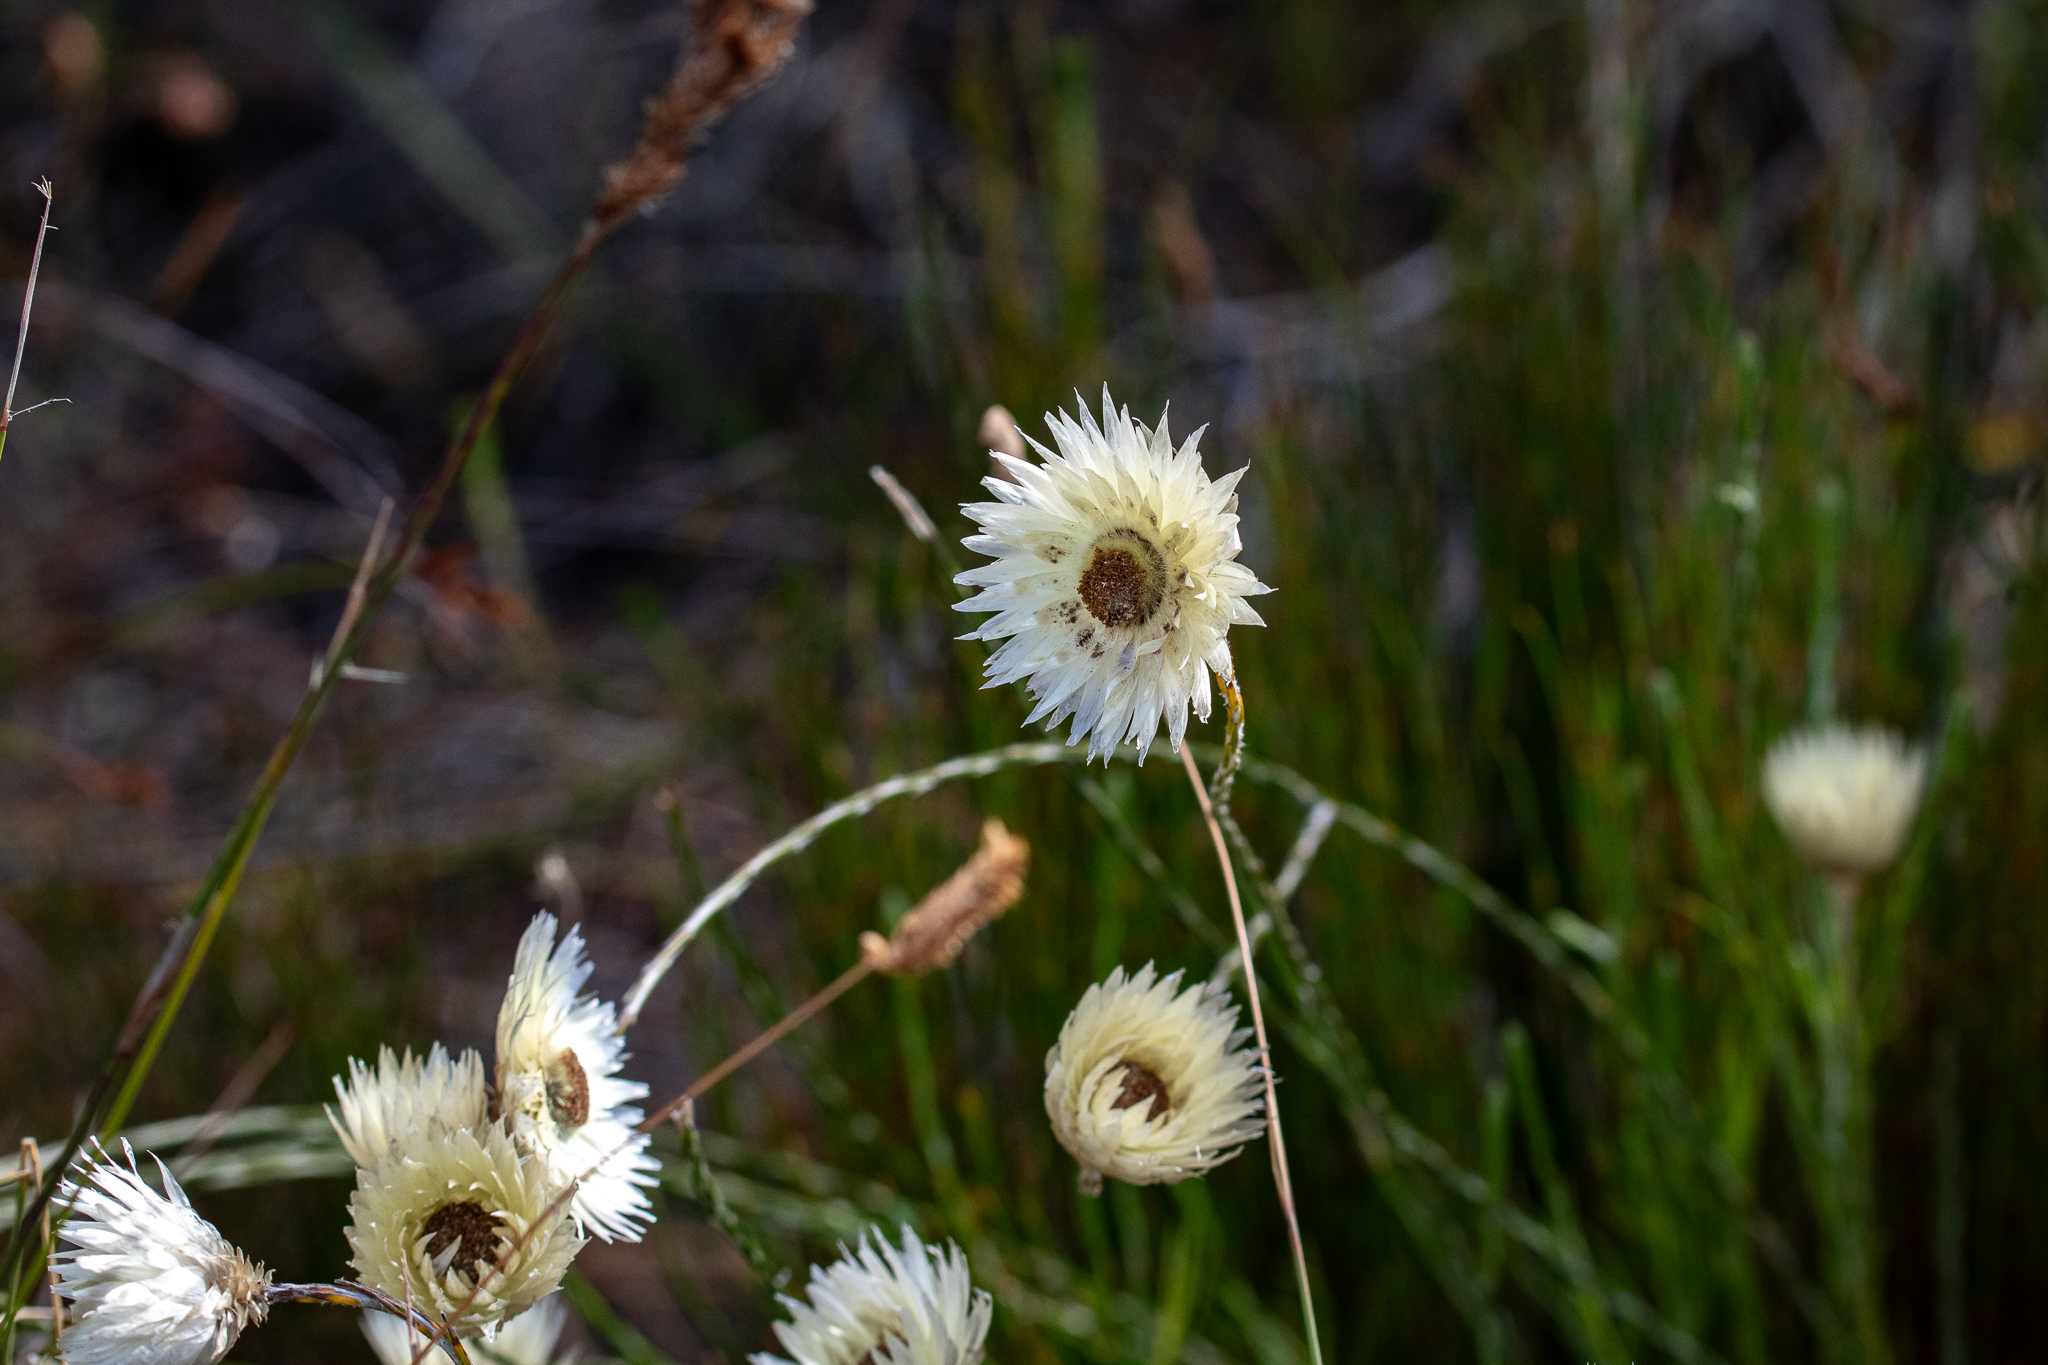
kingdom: Plantae
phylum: Tracheophyta
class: Magnoliopsida
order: Asterales
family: Asteraceae
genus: Edmondia
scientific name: Edmondia sesamoides
